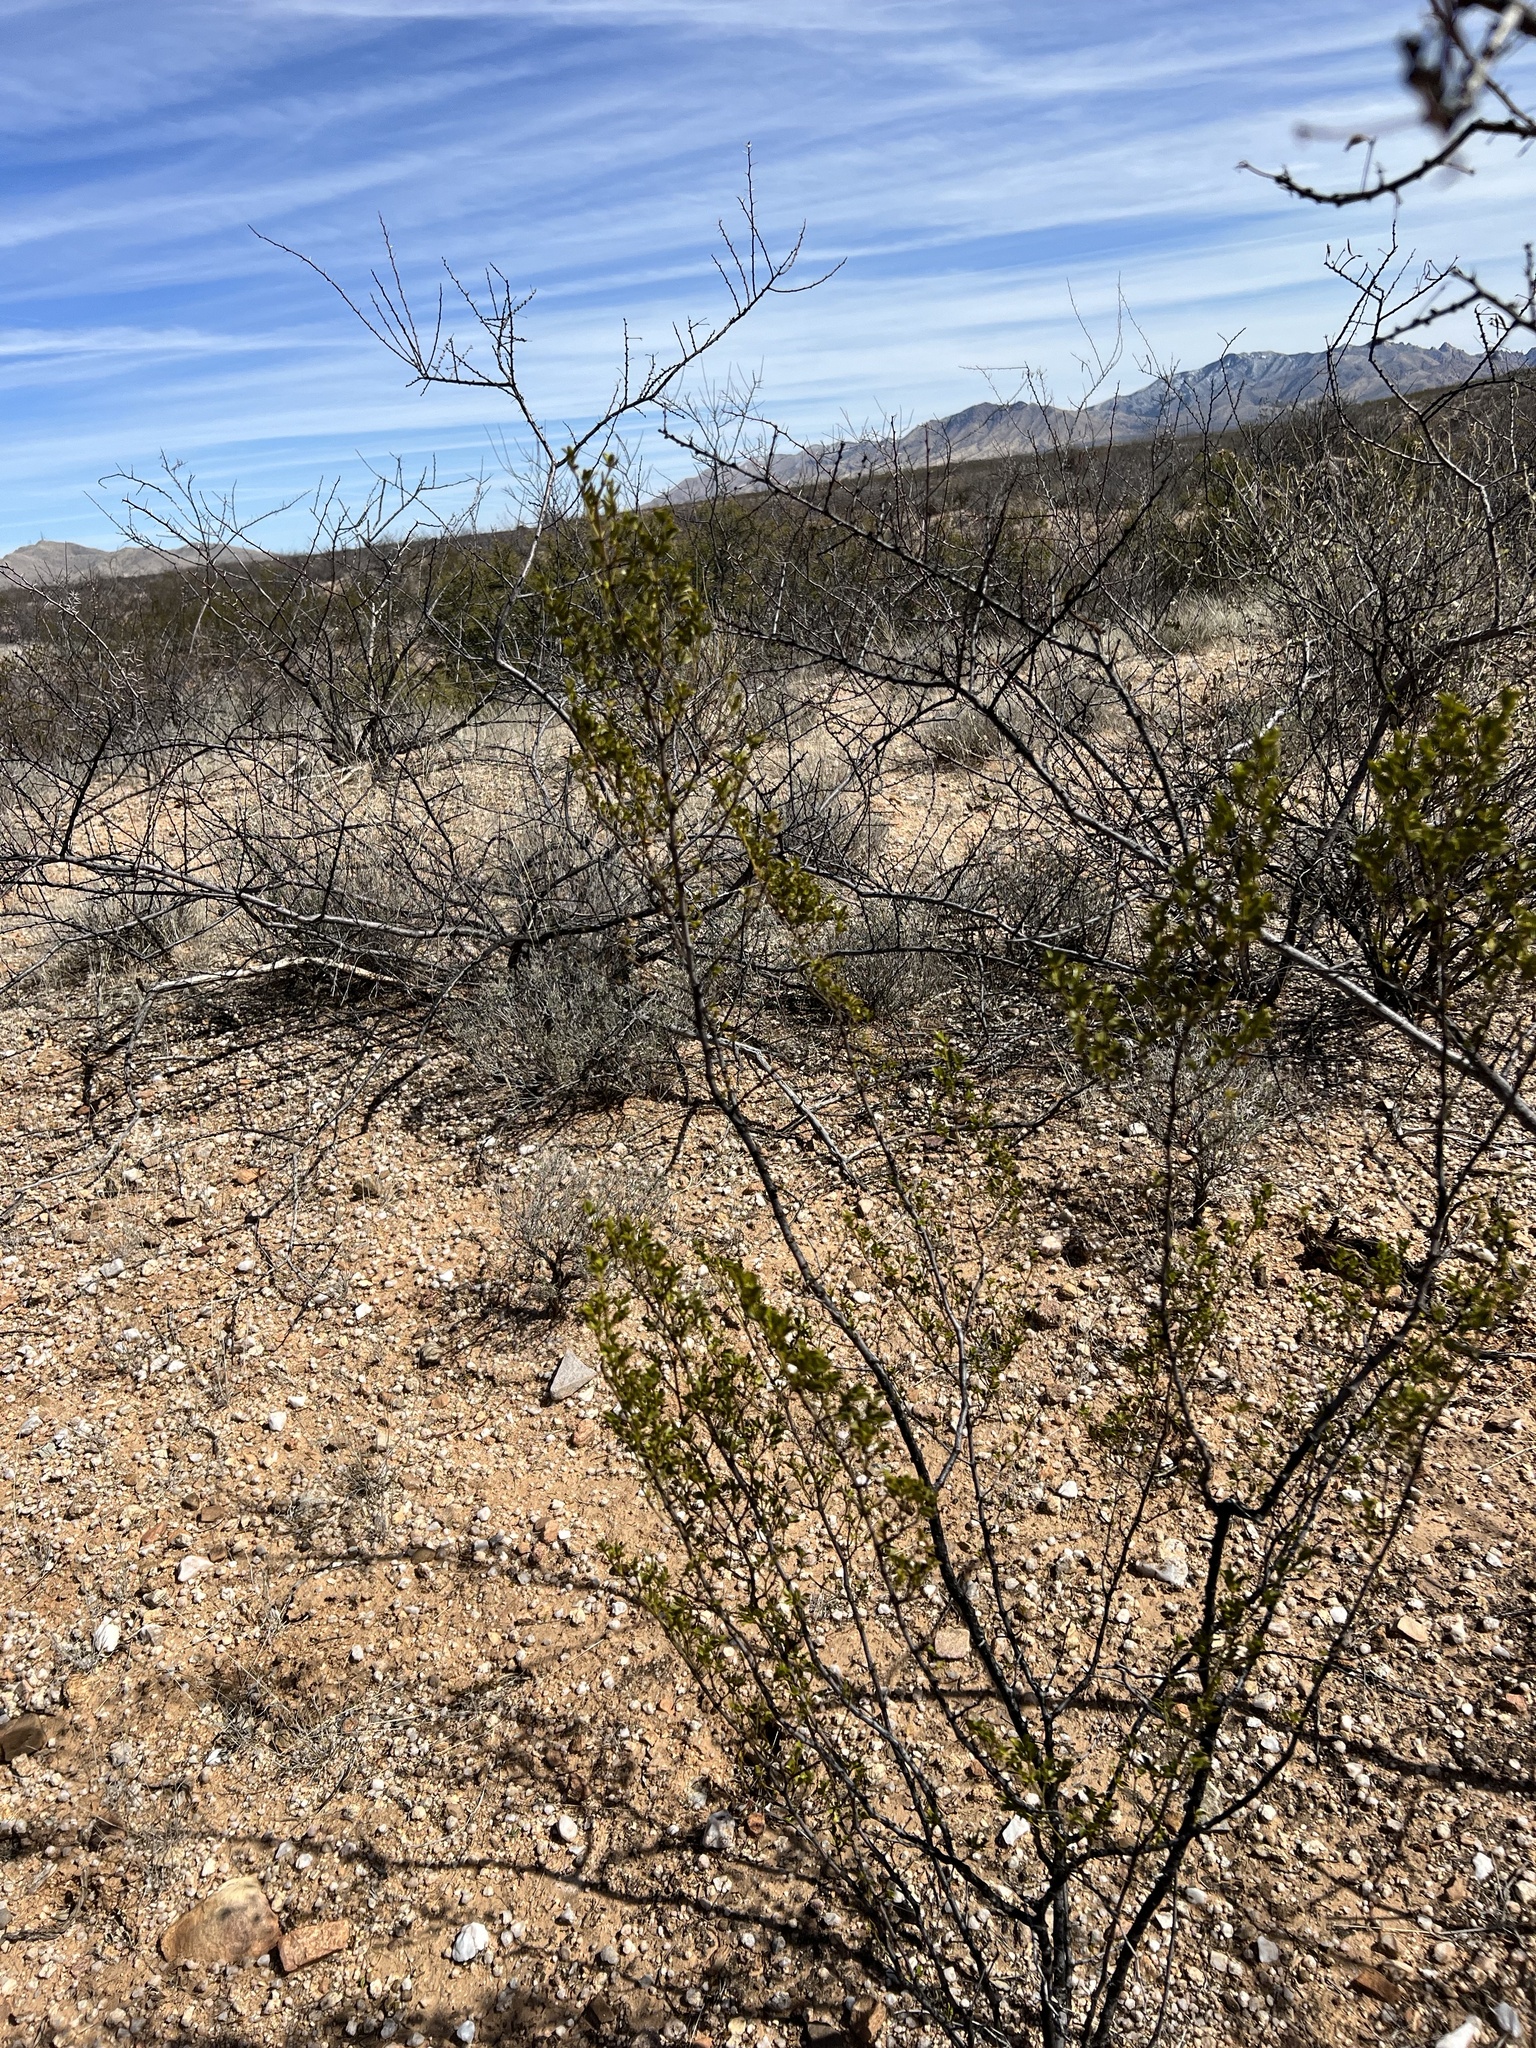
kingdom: Plantae
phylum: Tracheophyta
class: Magnoliopsida
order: Zygophyllales
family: Zygophyllaceae
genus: Larrea
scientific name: Larrea tridentata
